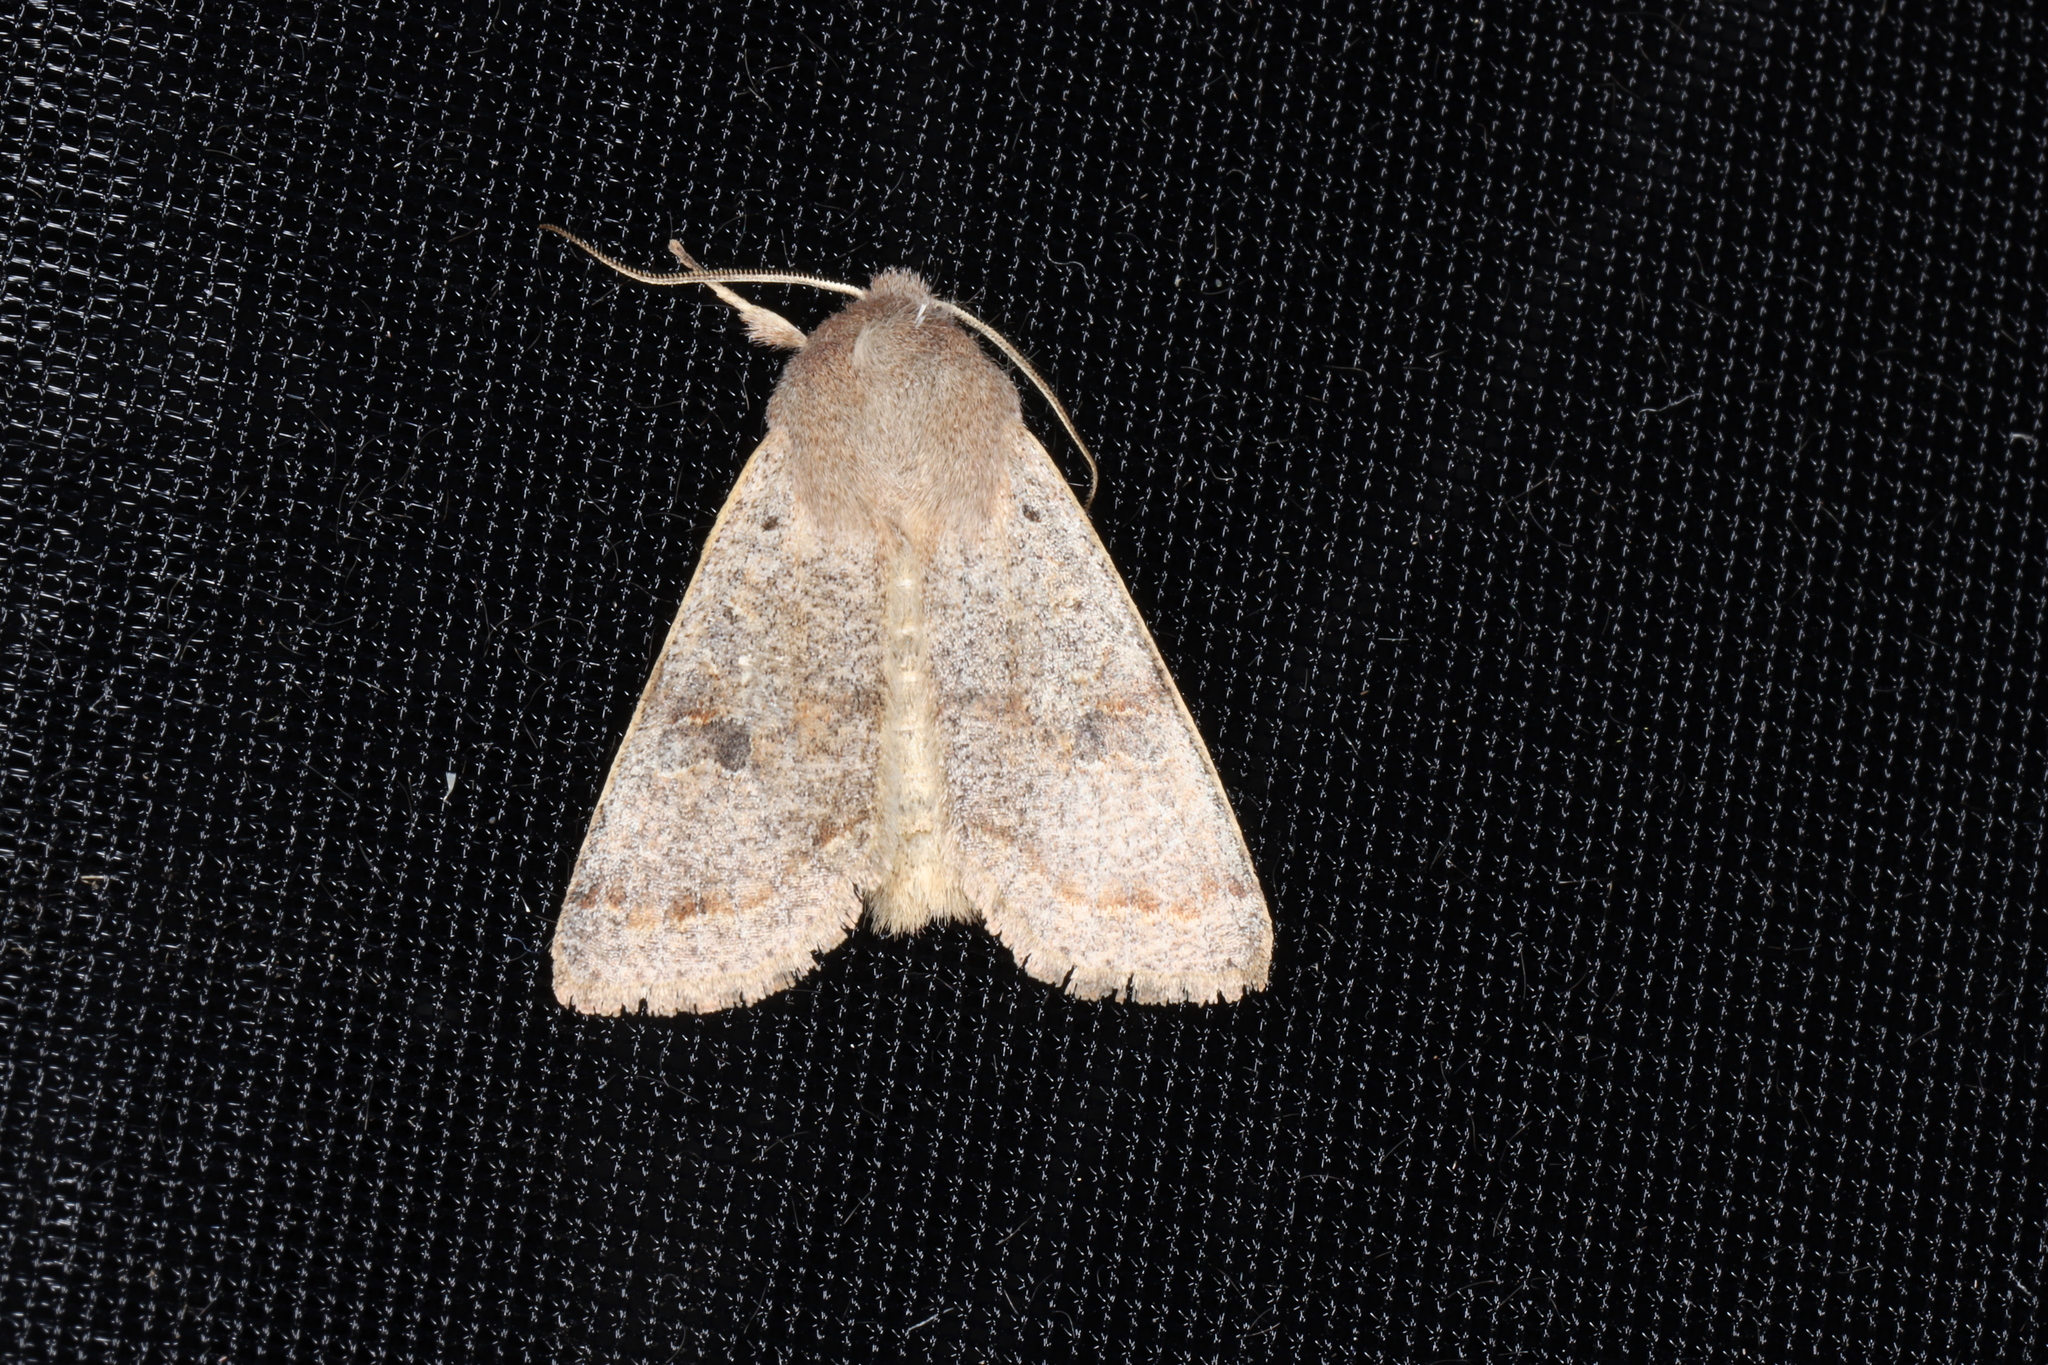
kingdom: Animalia
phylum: Arthropoda
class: Insecta
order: Lepidoptera
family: Noctuidae
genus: Orthosia
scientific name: Orthosia hibisci
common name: Green fruitworm
